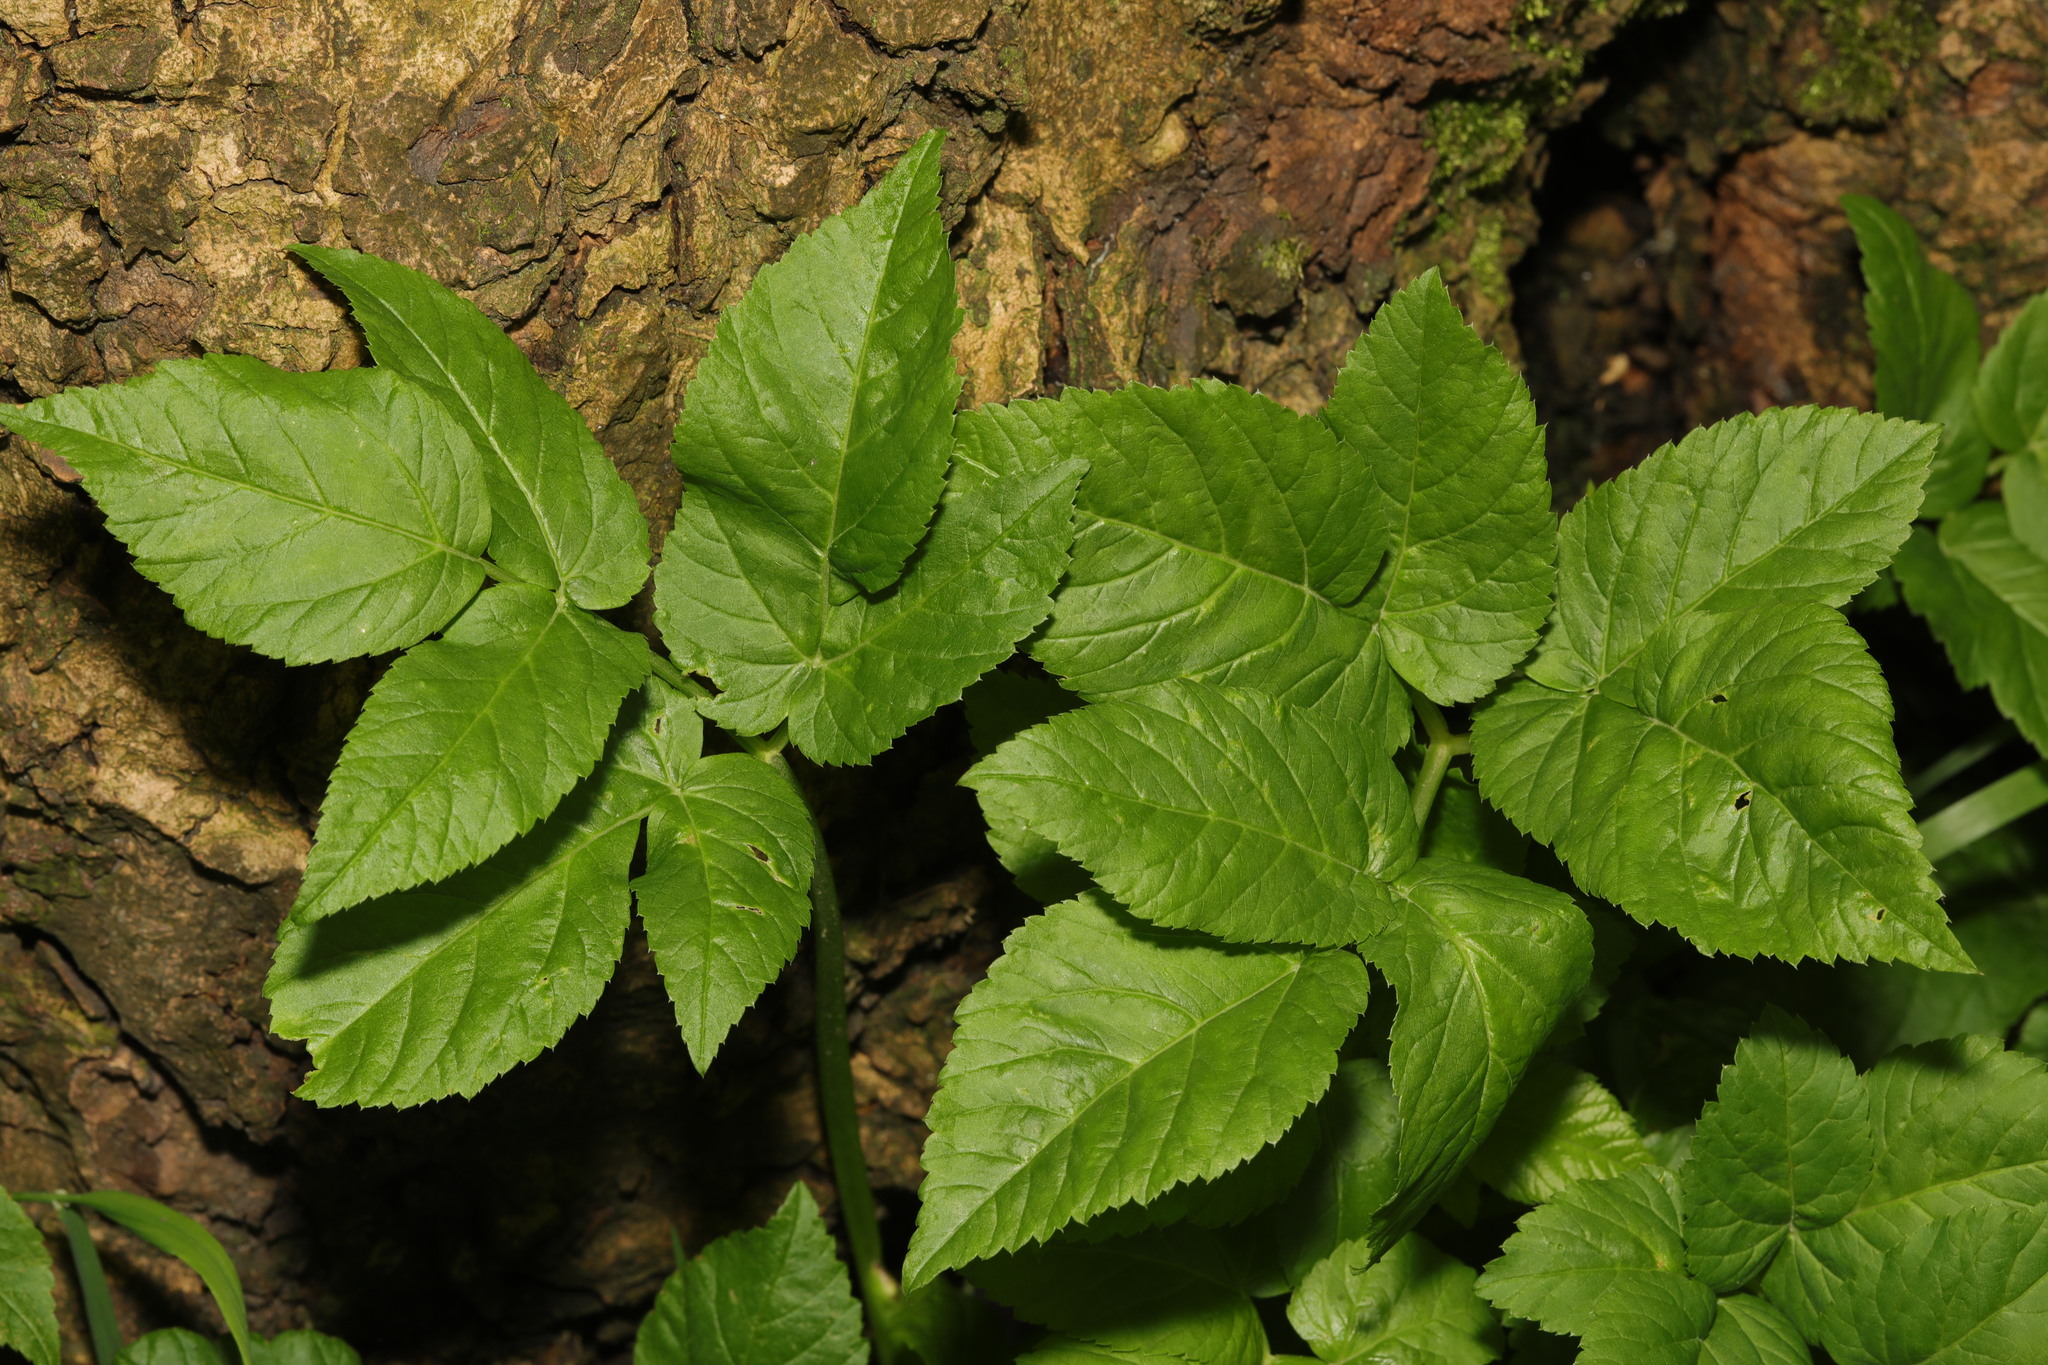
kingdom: Plantae
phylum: Tracheophyta
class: Magnoliopsida
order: Apiales
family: Apiaceae
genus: Aegopodium
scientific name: Aegopodium podagraria
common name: Ground-elder
